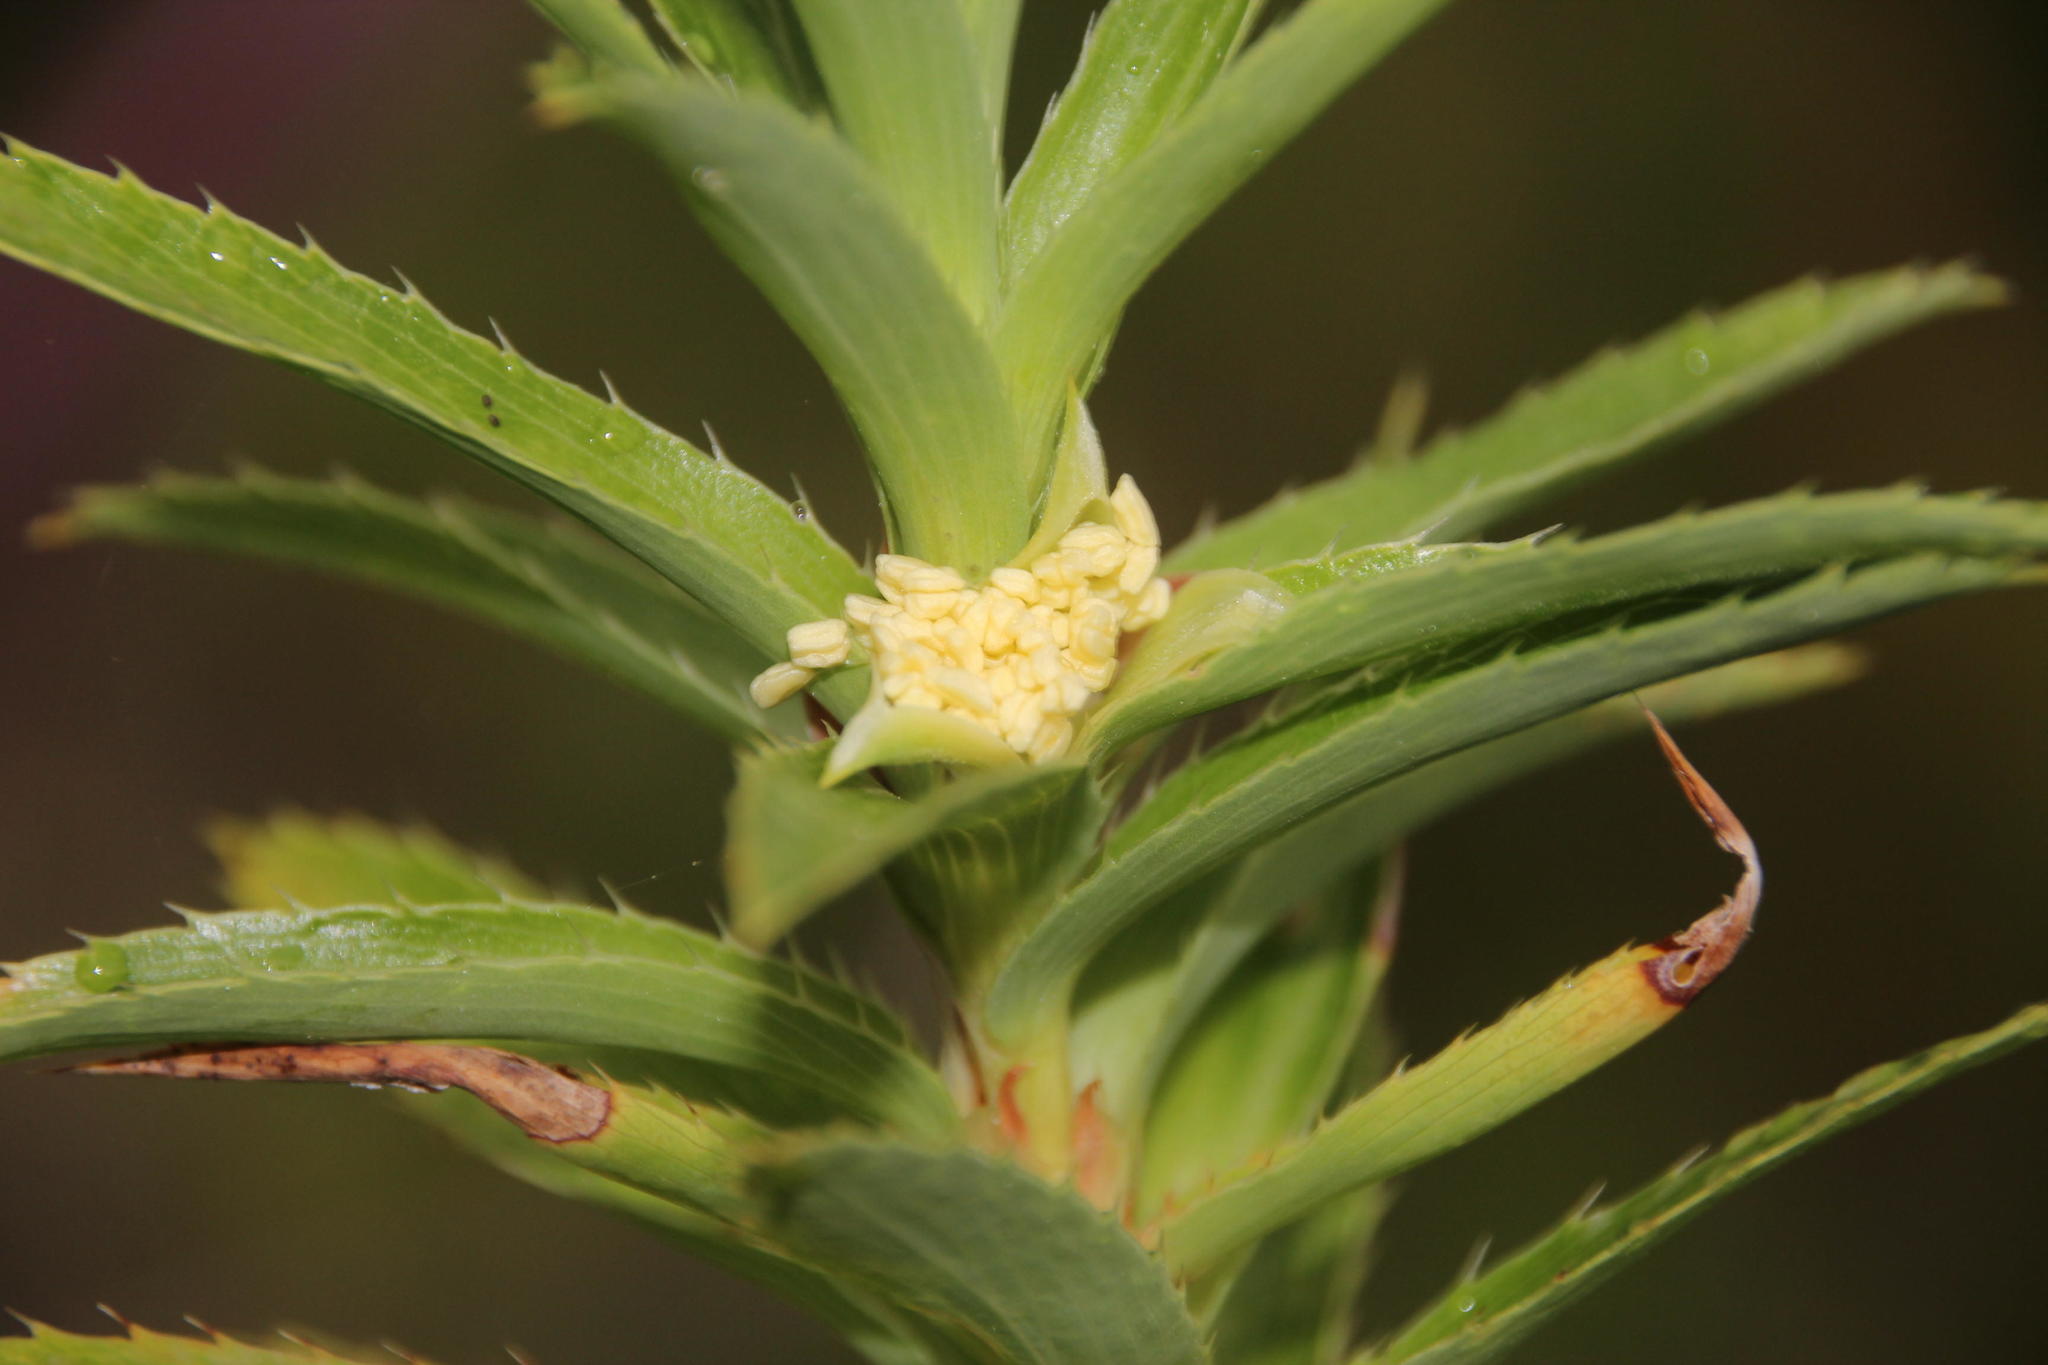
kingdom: Plantae
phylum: Tracheophyta
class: Magnoliopsida
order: Rosales
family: Rosaceae
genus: Cliffortia
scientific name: Cliffortia grandifolia
